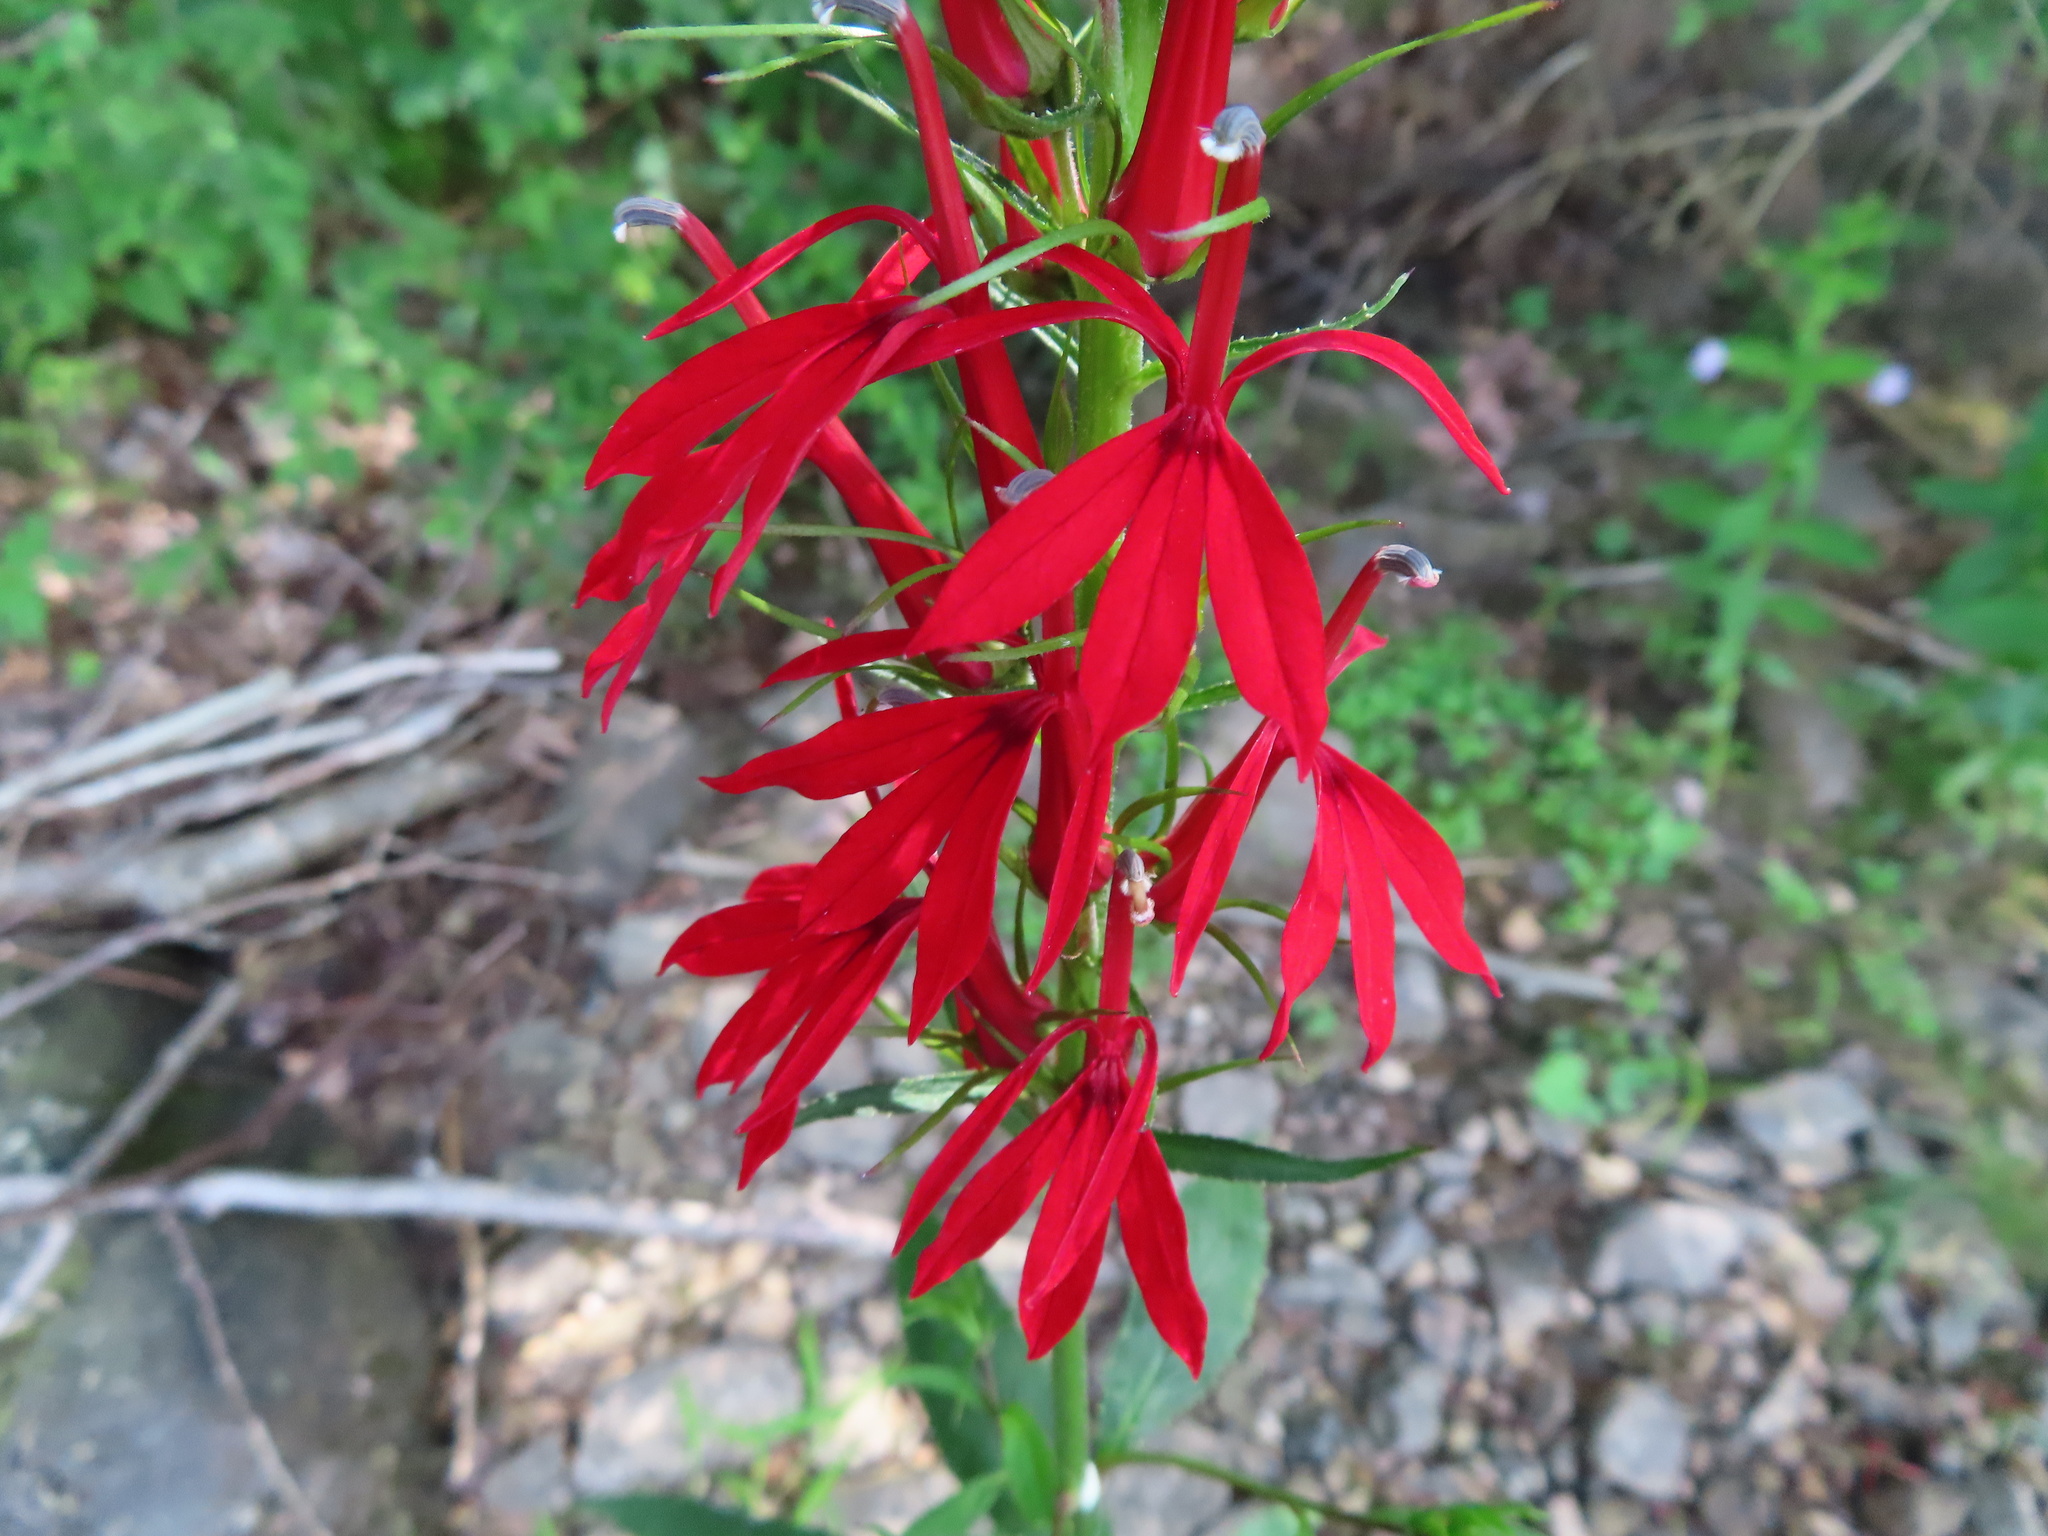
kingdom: Plantae
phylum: Tracheophyta
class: Magnoliopsida
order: Asterales
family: Campanulaceae
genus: Lobelia
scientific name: Lobelia cardinalis
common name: Cardinal flower
